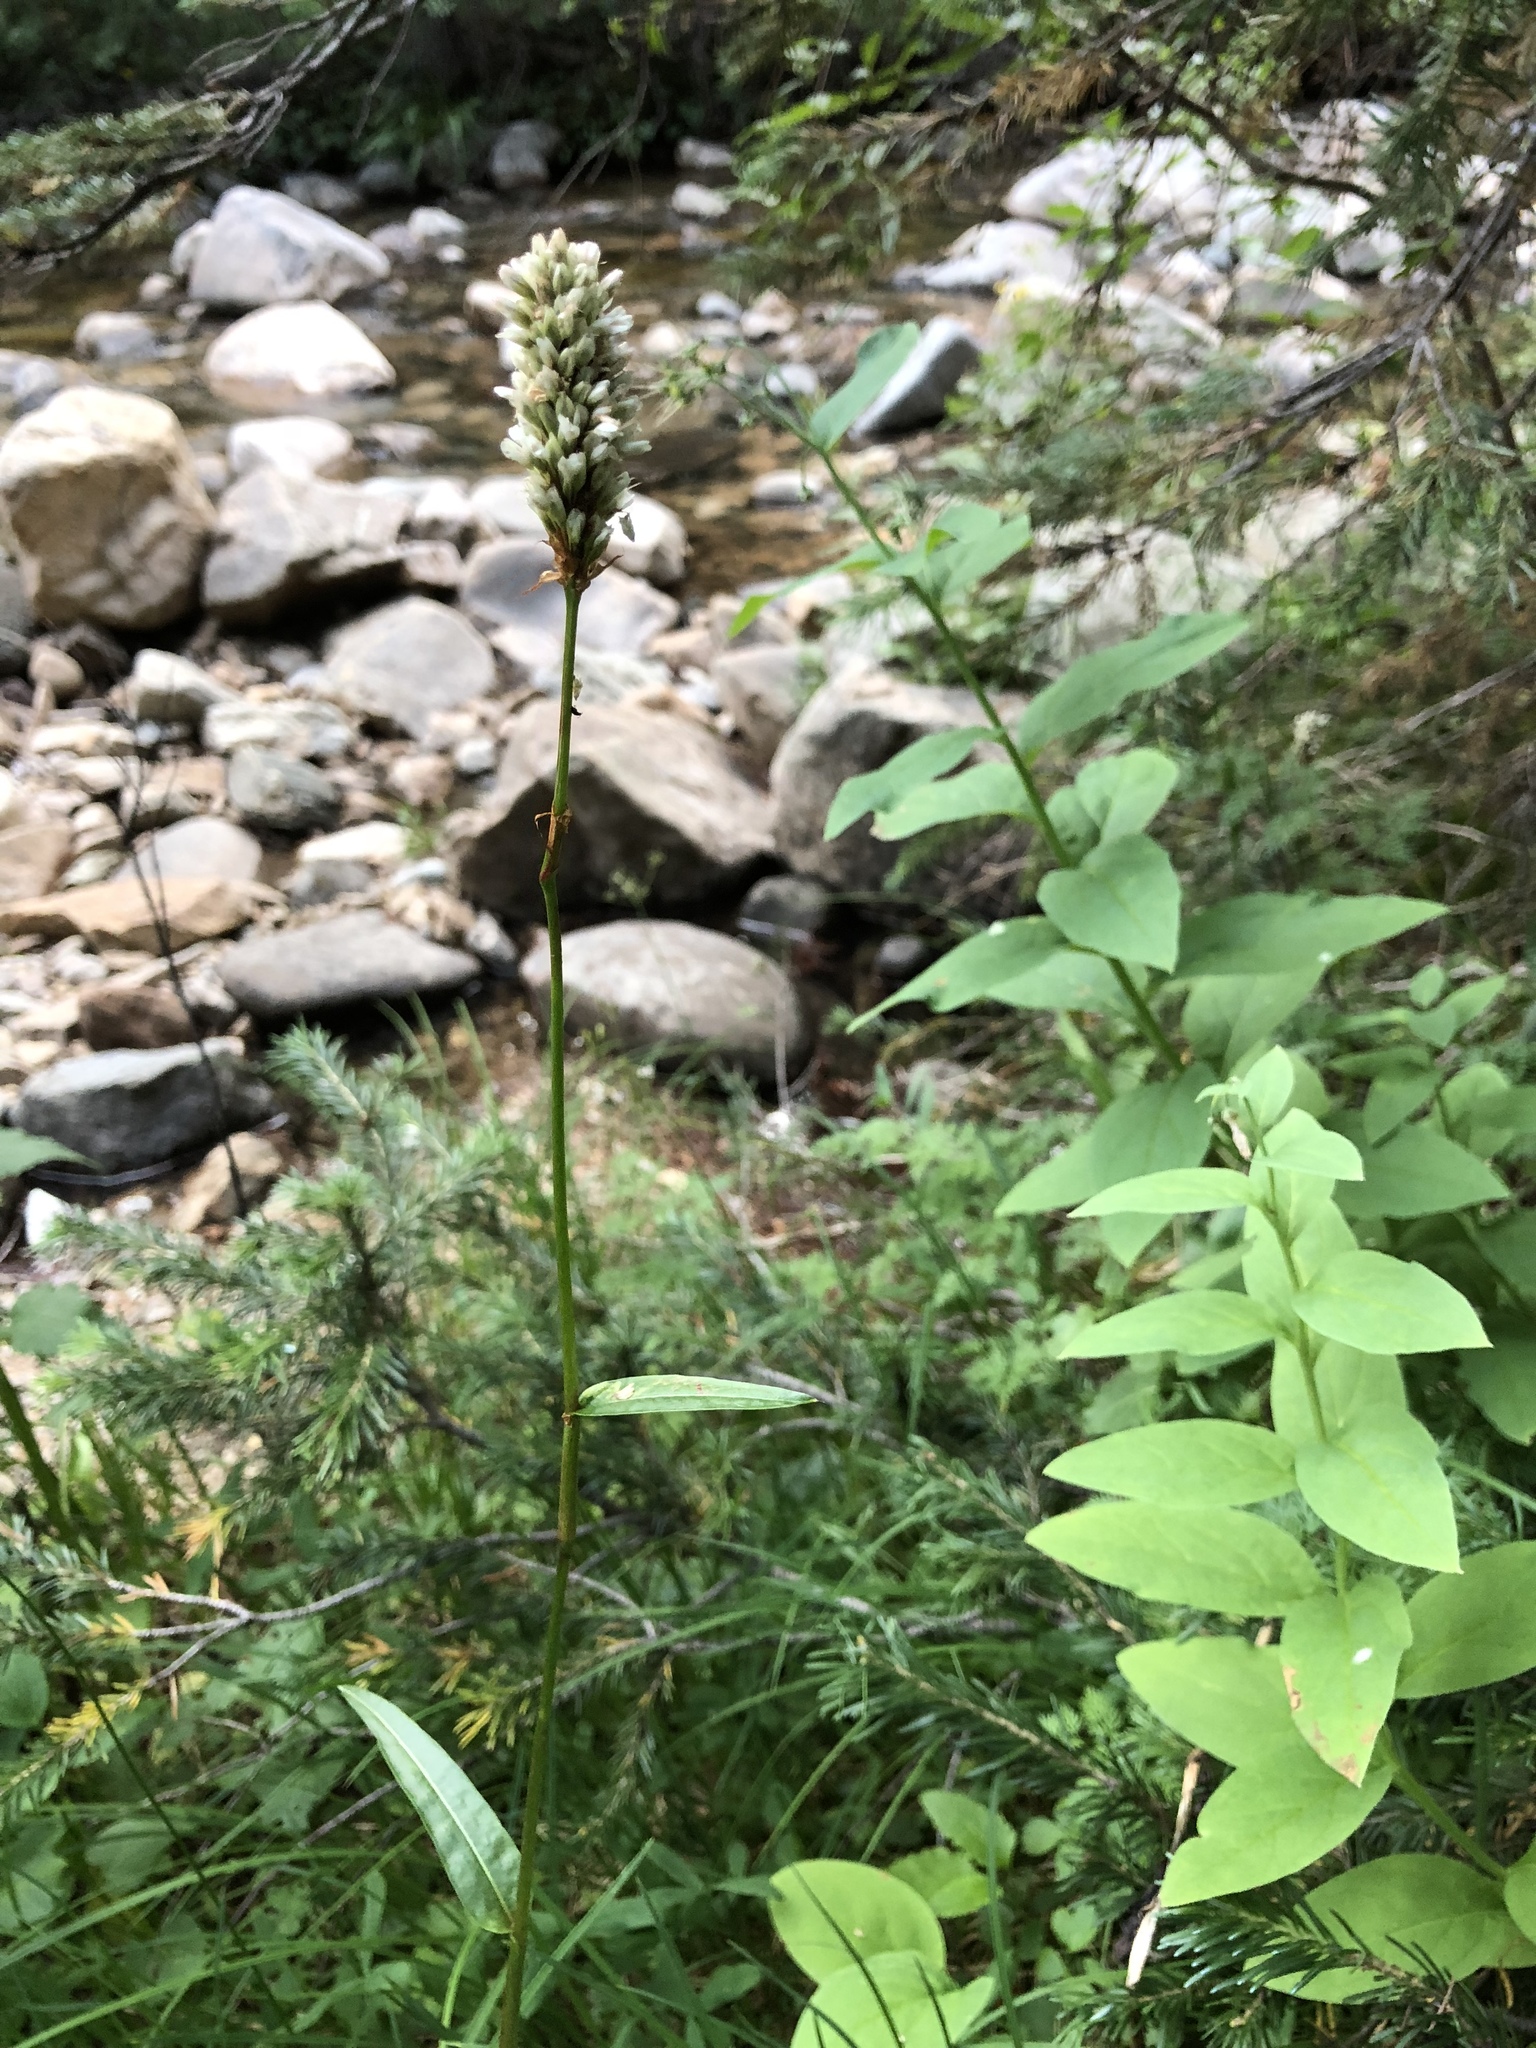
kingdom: Plantae
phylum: Tracheophyta
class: Magnoliopsida
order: Caryophyllales
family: Polygonaceae
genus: Bistorta
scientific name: Bistorta bistortoides
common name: American bistort
